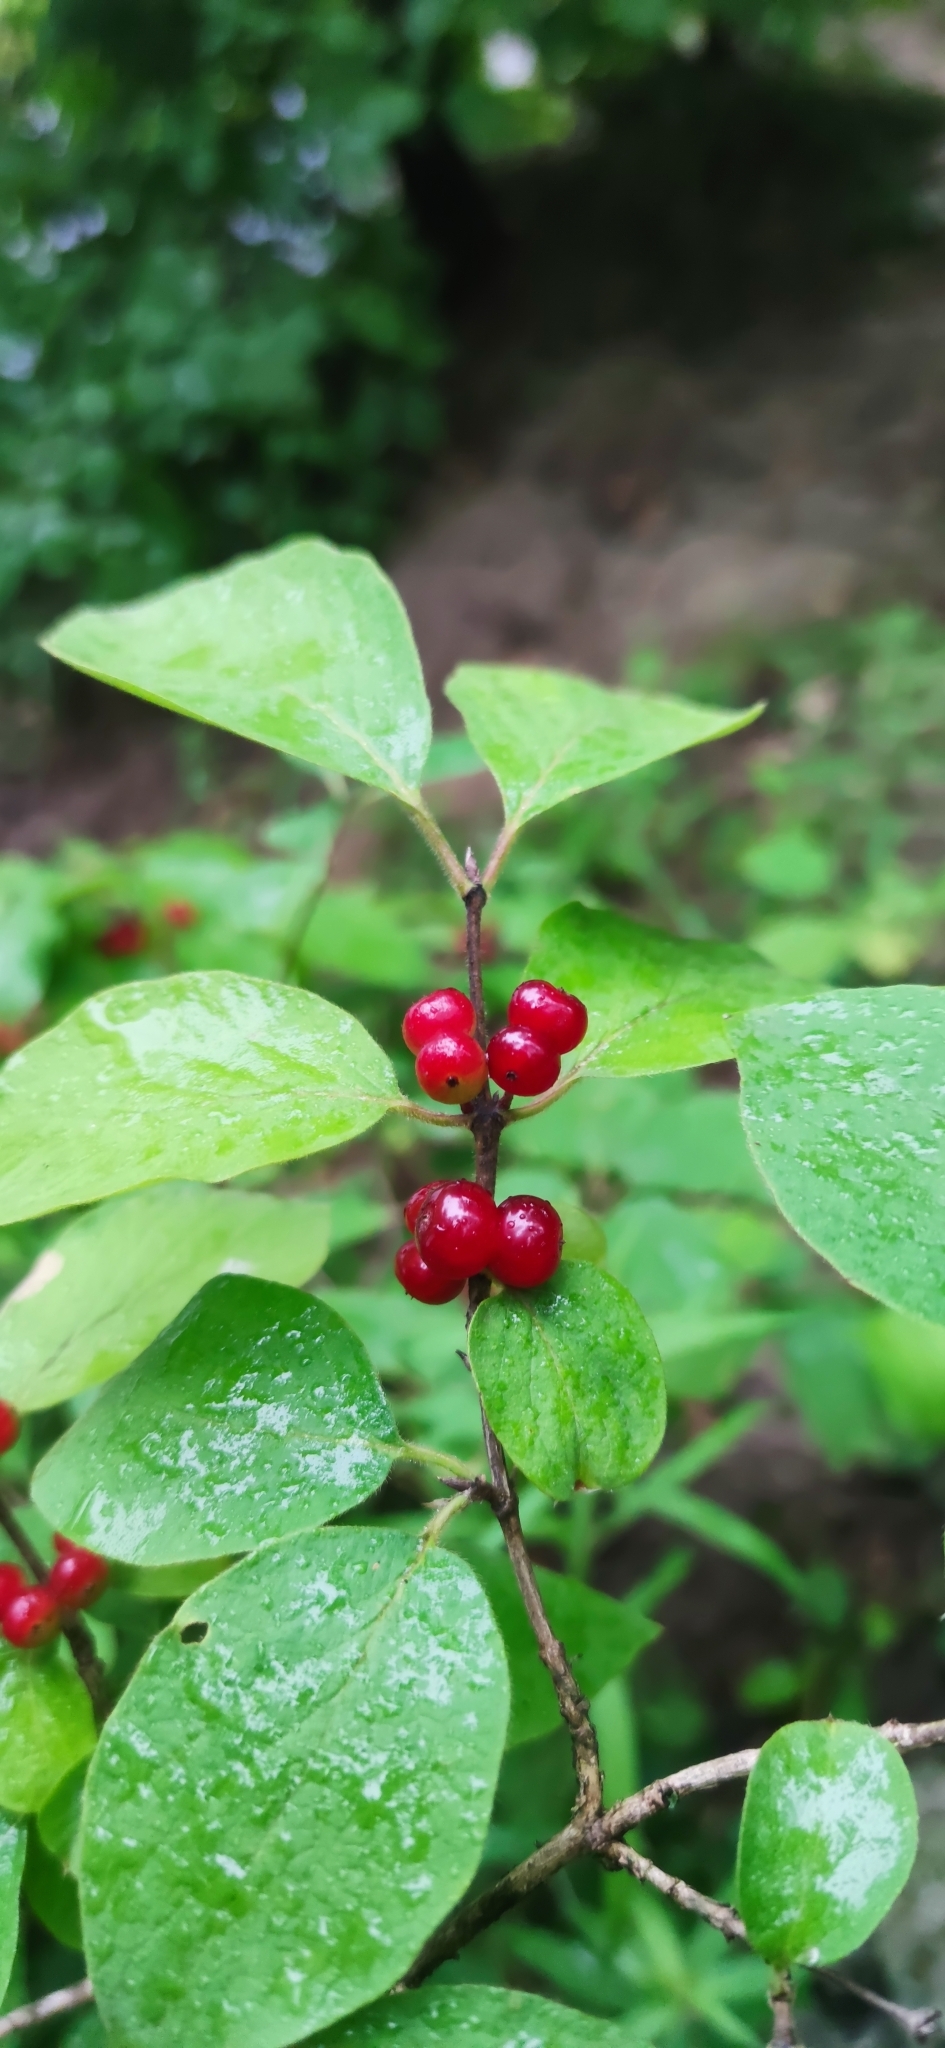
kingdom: Plantae
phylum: Tracheophyta
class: Magnoliopsida
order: Dipsacales
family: Caprifoliaceae
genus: Lonicera
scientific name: Lonicera xylosteum
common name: Fly honeysuckle
